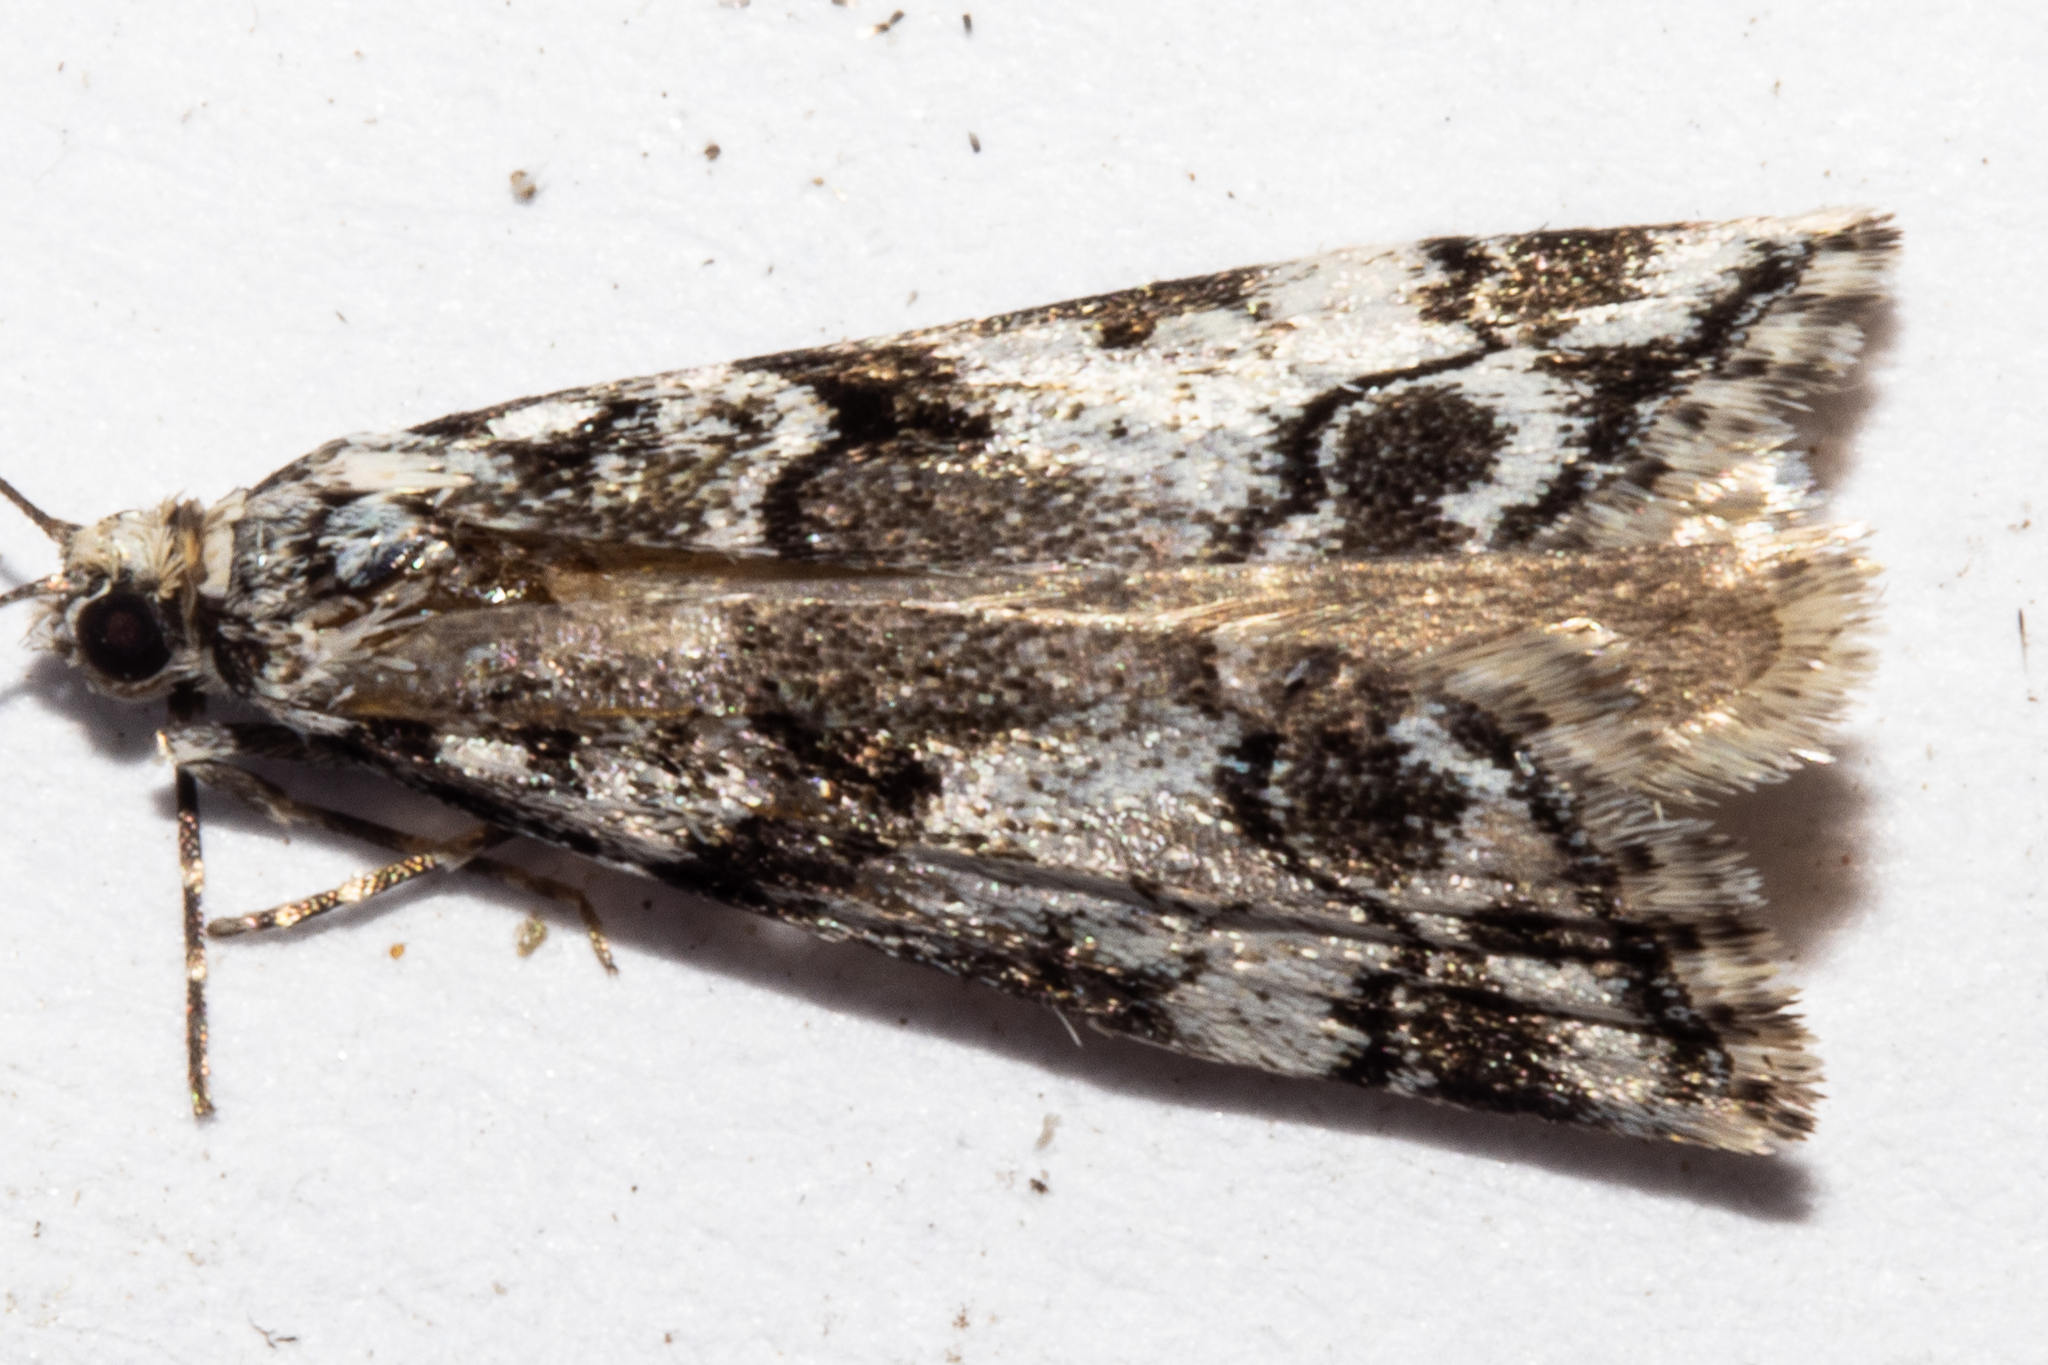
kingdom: Animalia
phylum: Arthropoda
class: Insecta
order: Lepidoptera
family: Crambidae
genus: Eudonia
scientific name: Eudonia torodes
